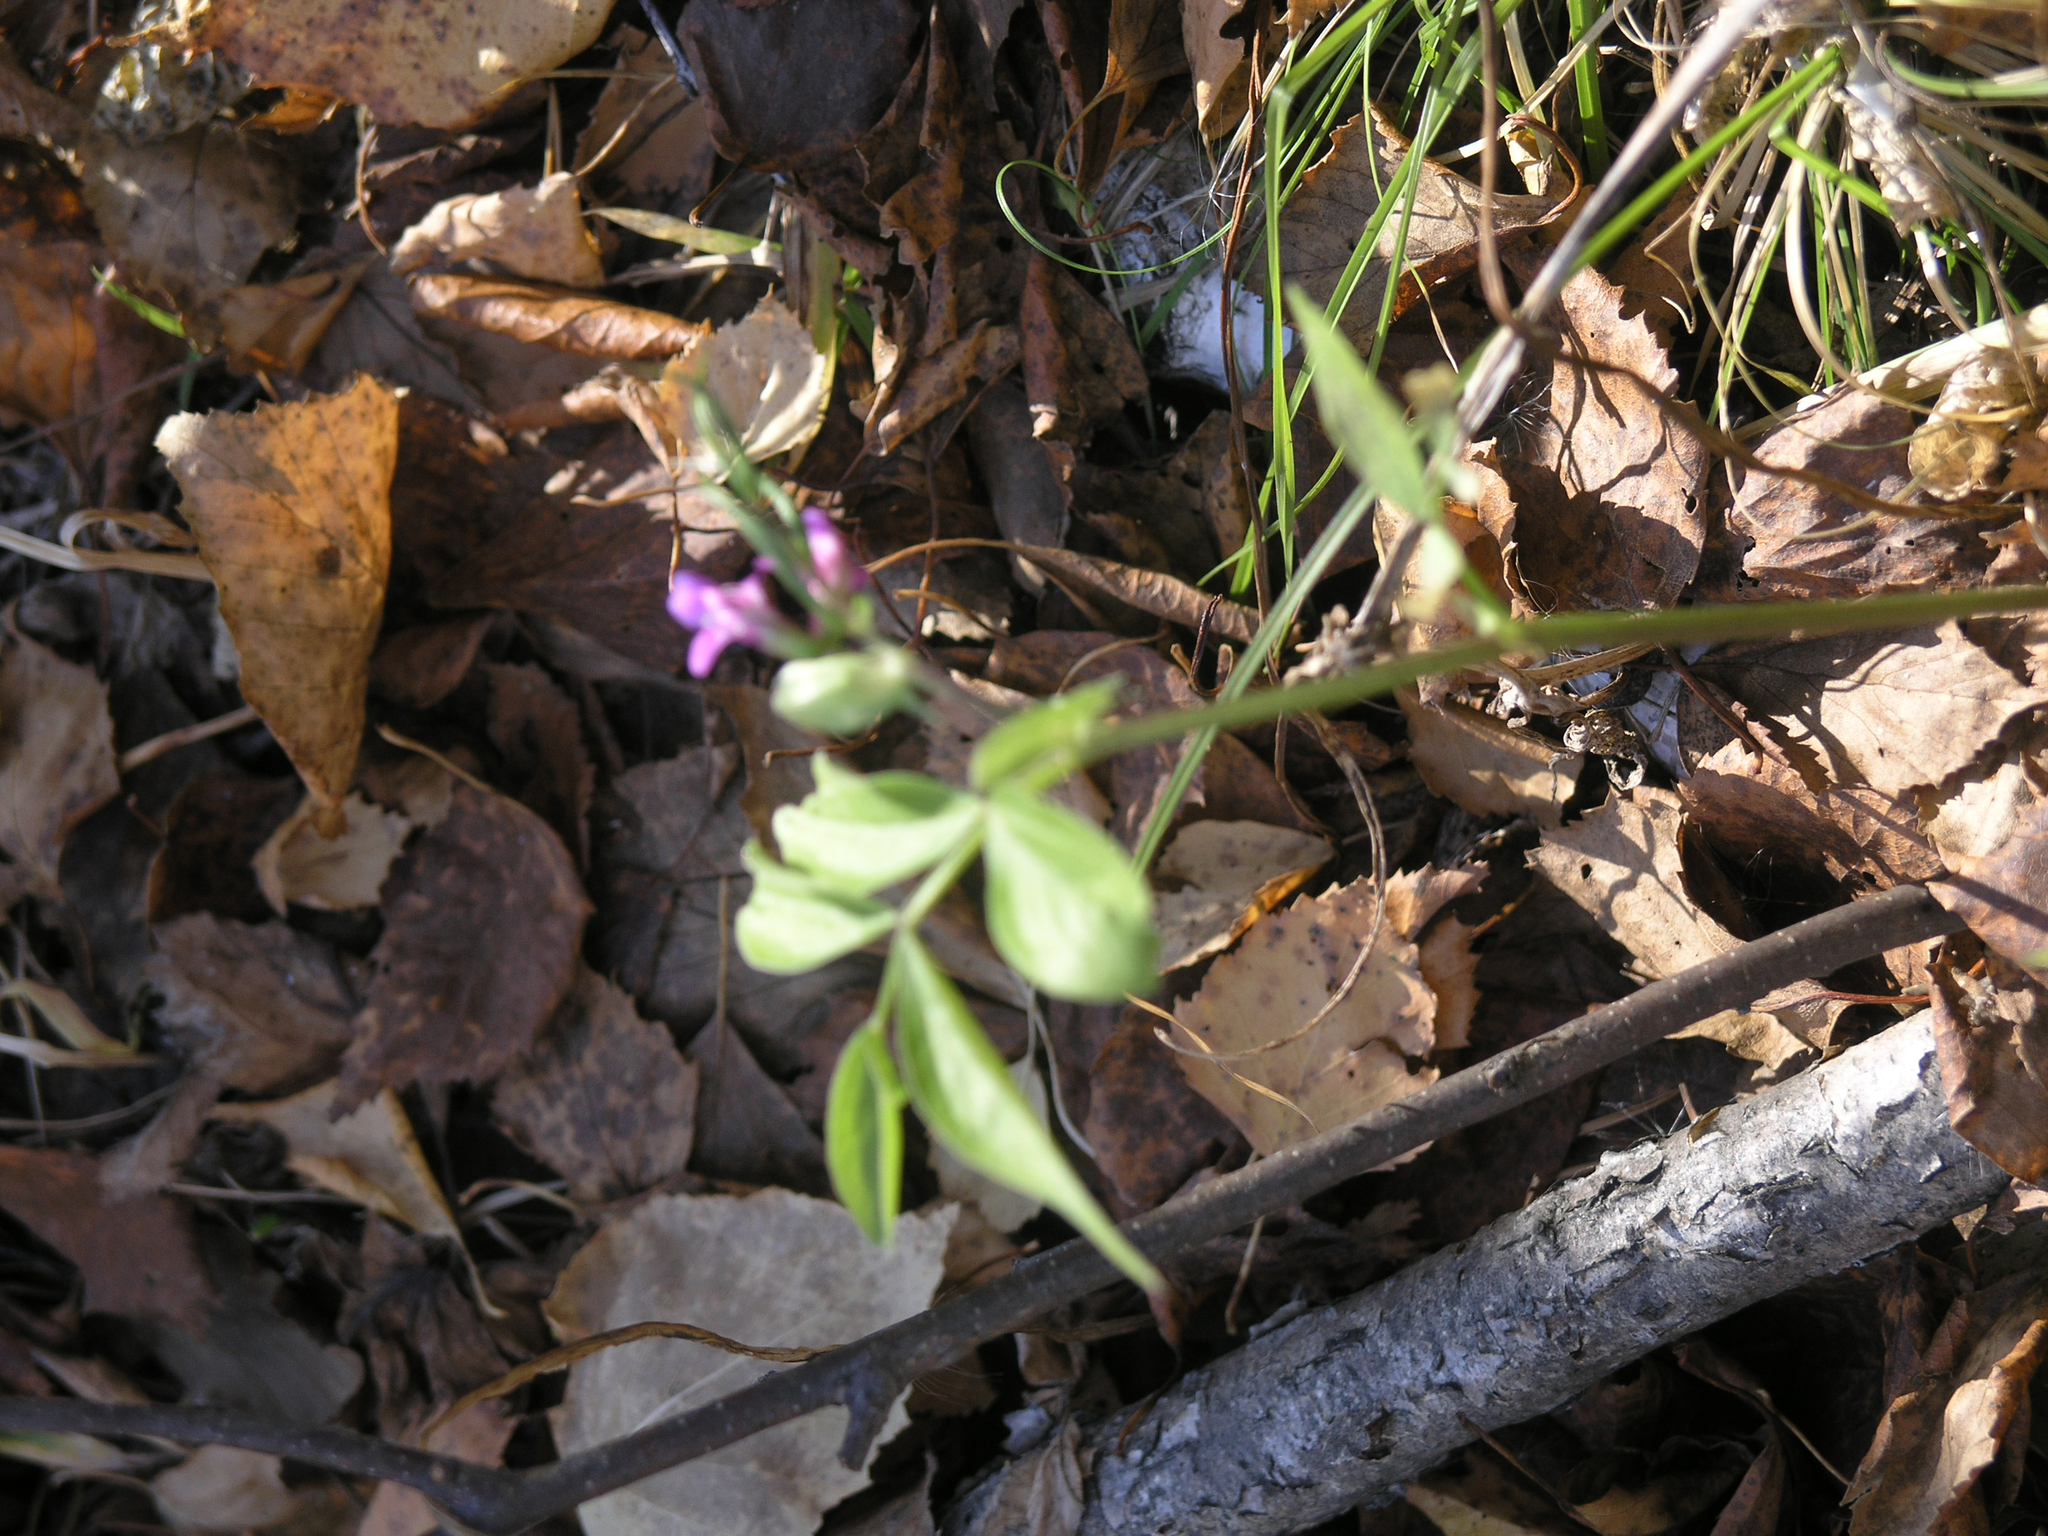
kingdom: Plantae
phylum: Tracheophyta
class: Magnoliopsida
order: Fabales
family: Fabaceae
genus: Lathyrus
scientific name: Lathyrus vernus
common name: Spring pea
